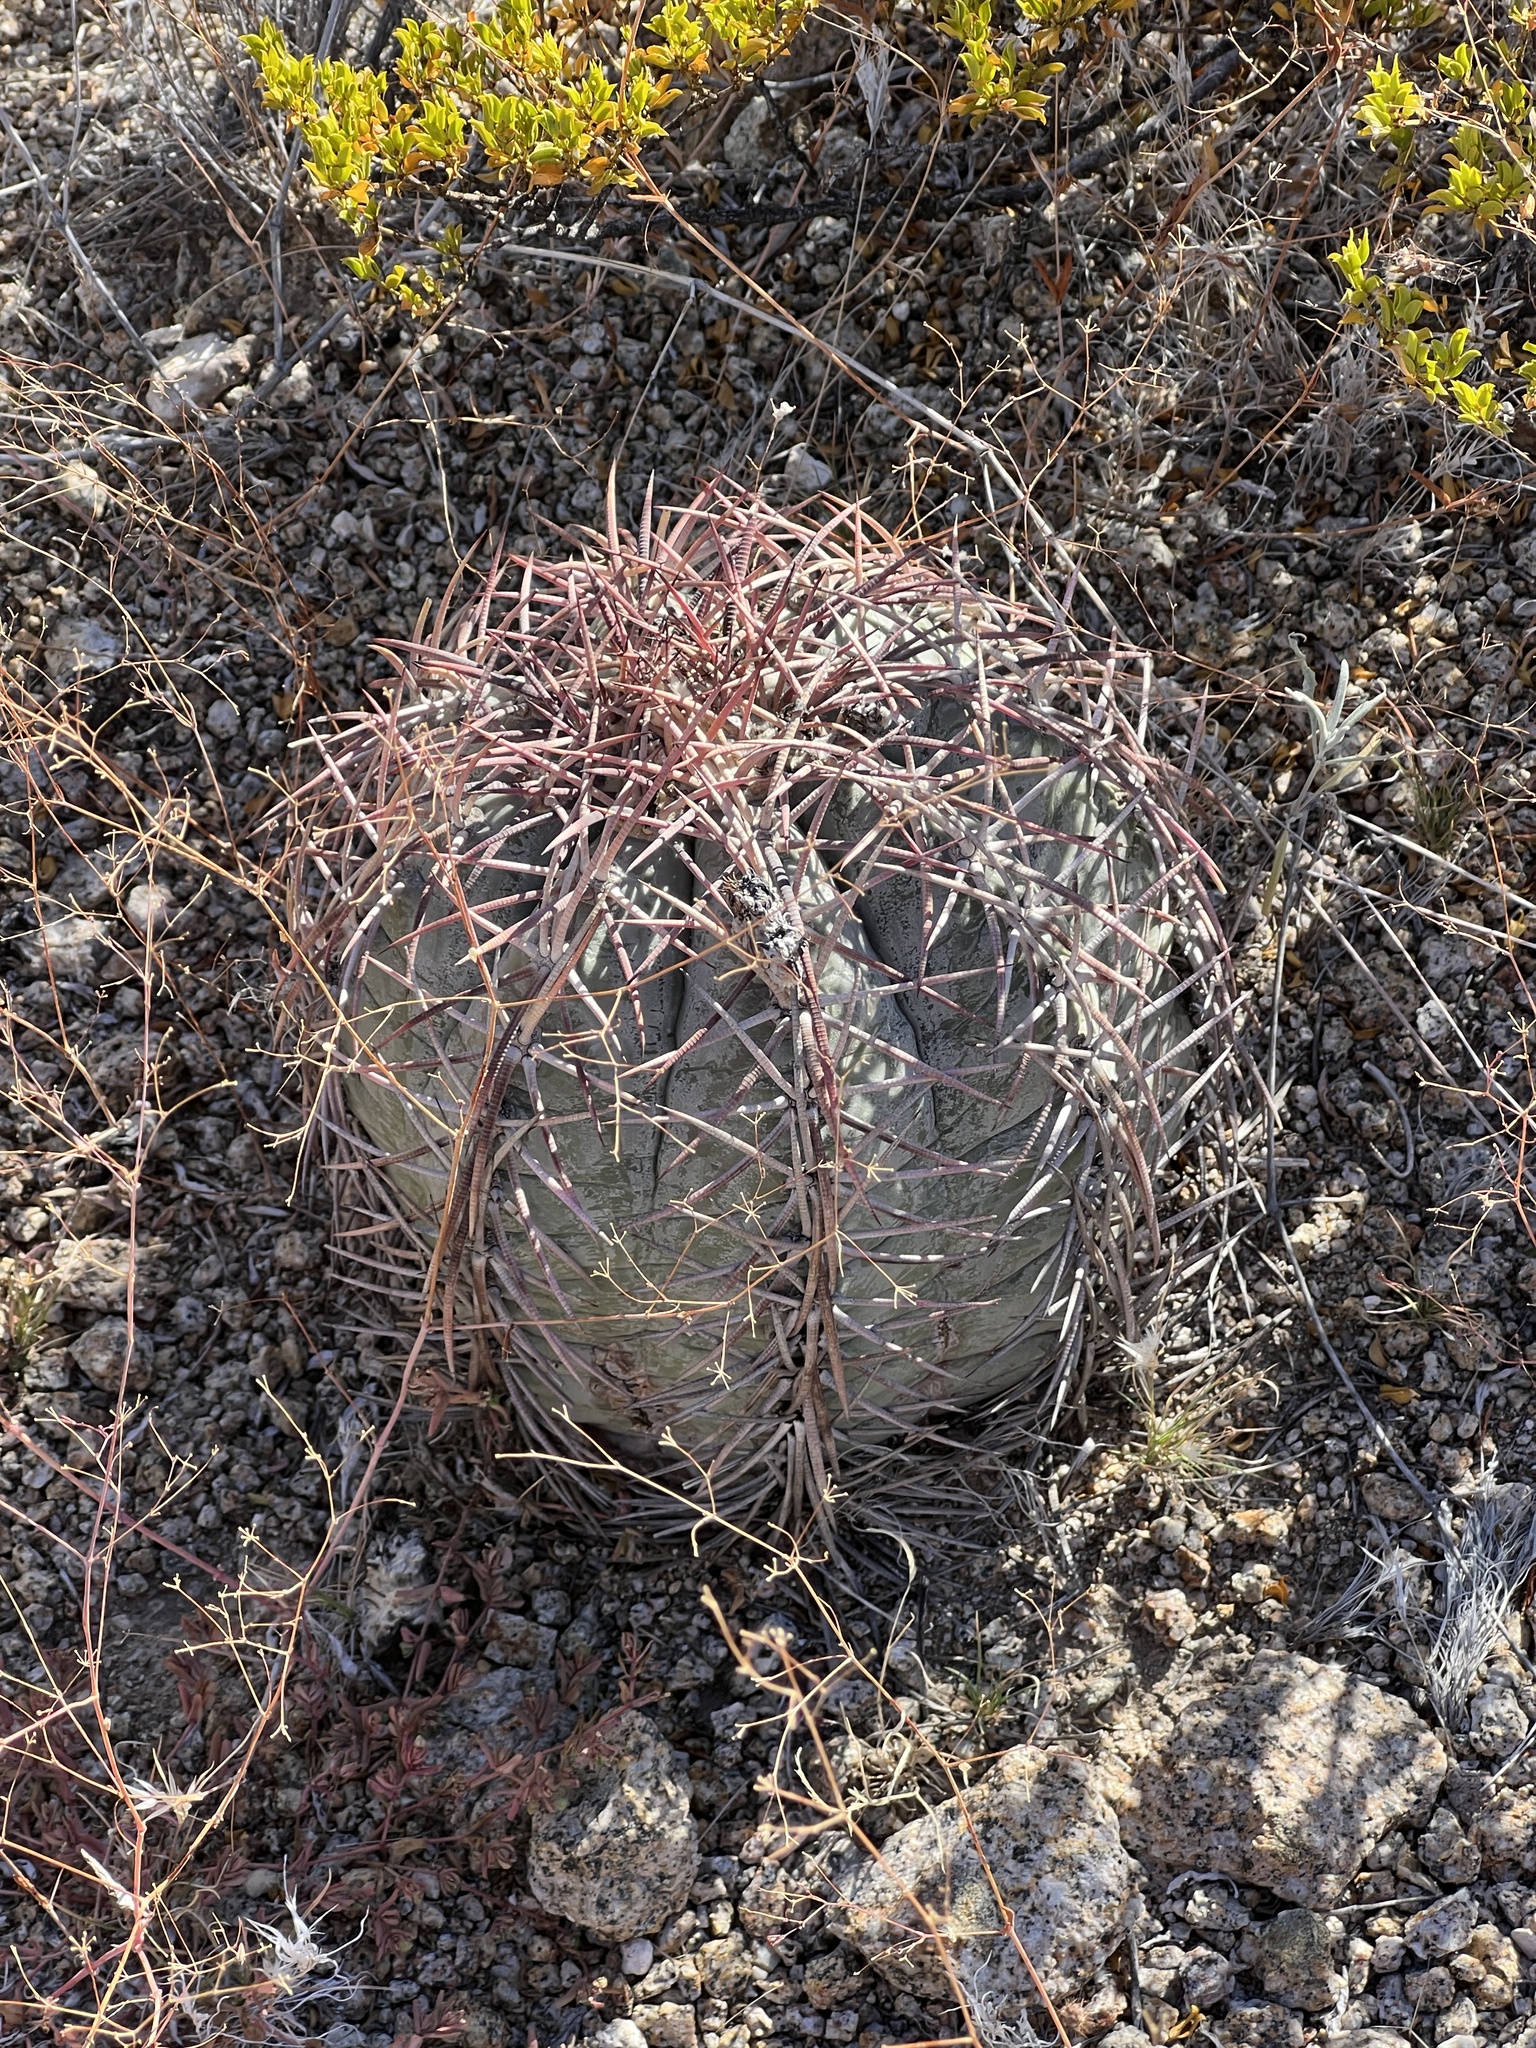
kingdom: Plantae
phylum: Tracheophyta
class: Magnoliopsida
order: Caryophyllales
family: Cactaceae
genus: Echinocactus
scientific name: Echinocactus horizonthalonius
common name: Devilshead
